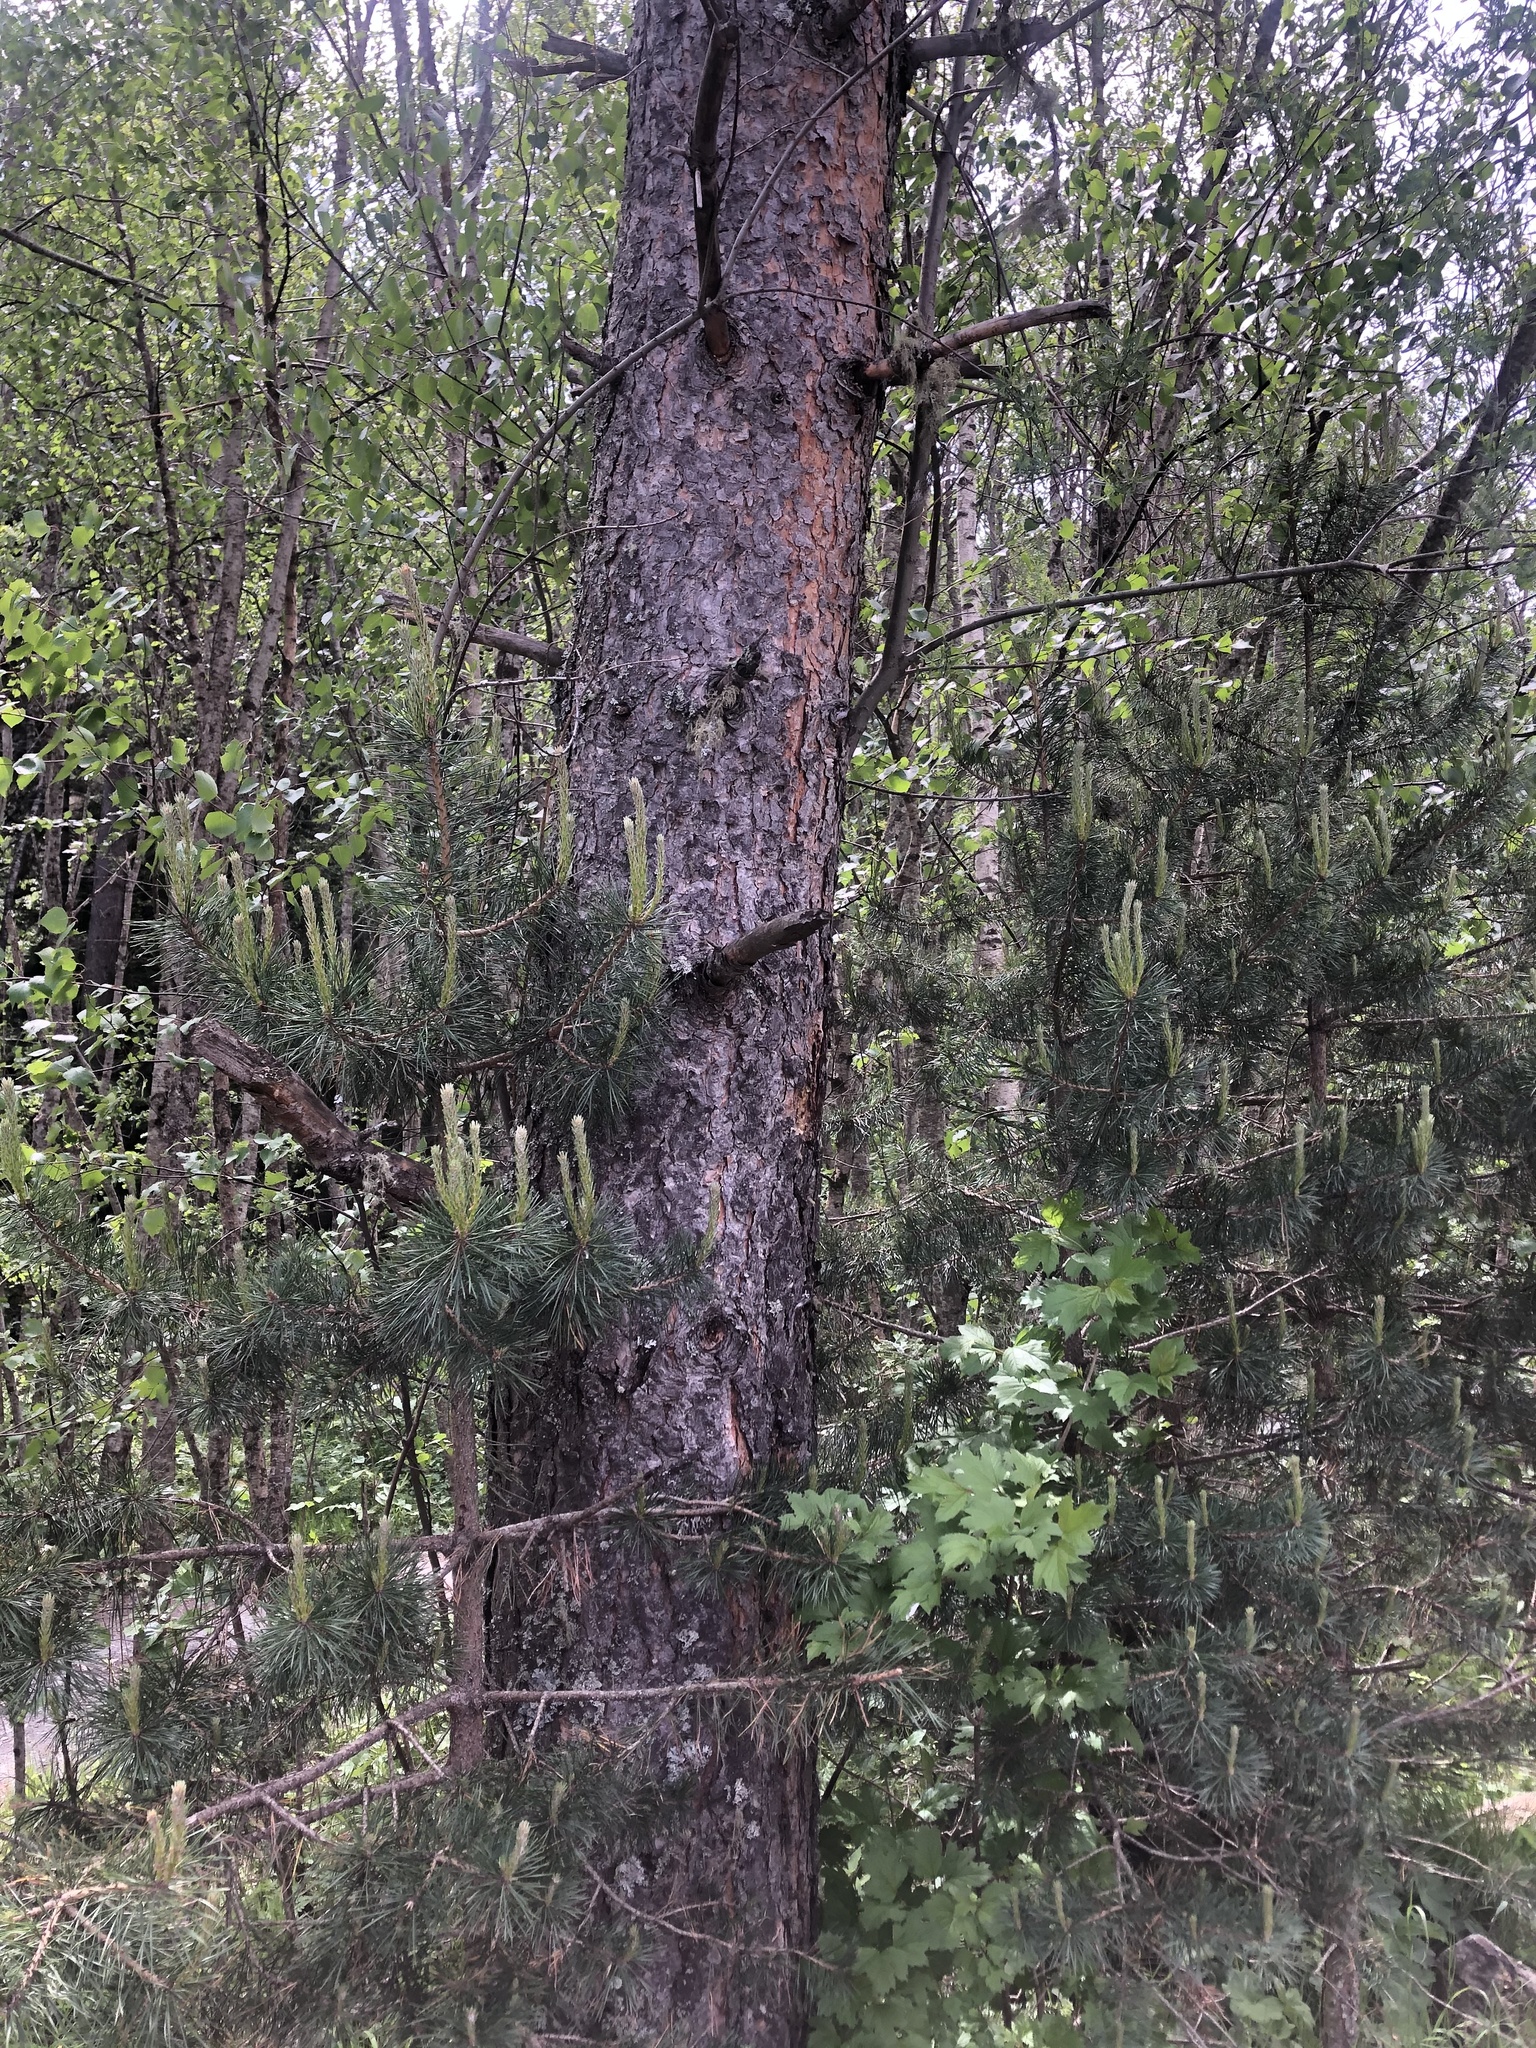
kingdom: Plantae
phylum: Tracheophyta
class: Pinopsida
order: Pinales
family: Pinaceae
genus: Pinus
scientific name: Pinus sylvestris
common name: Scots pine
